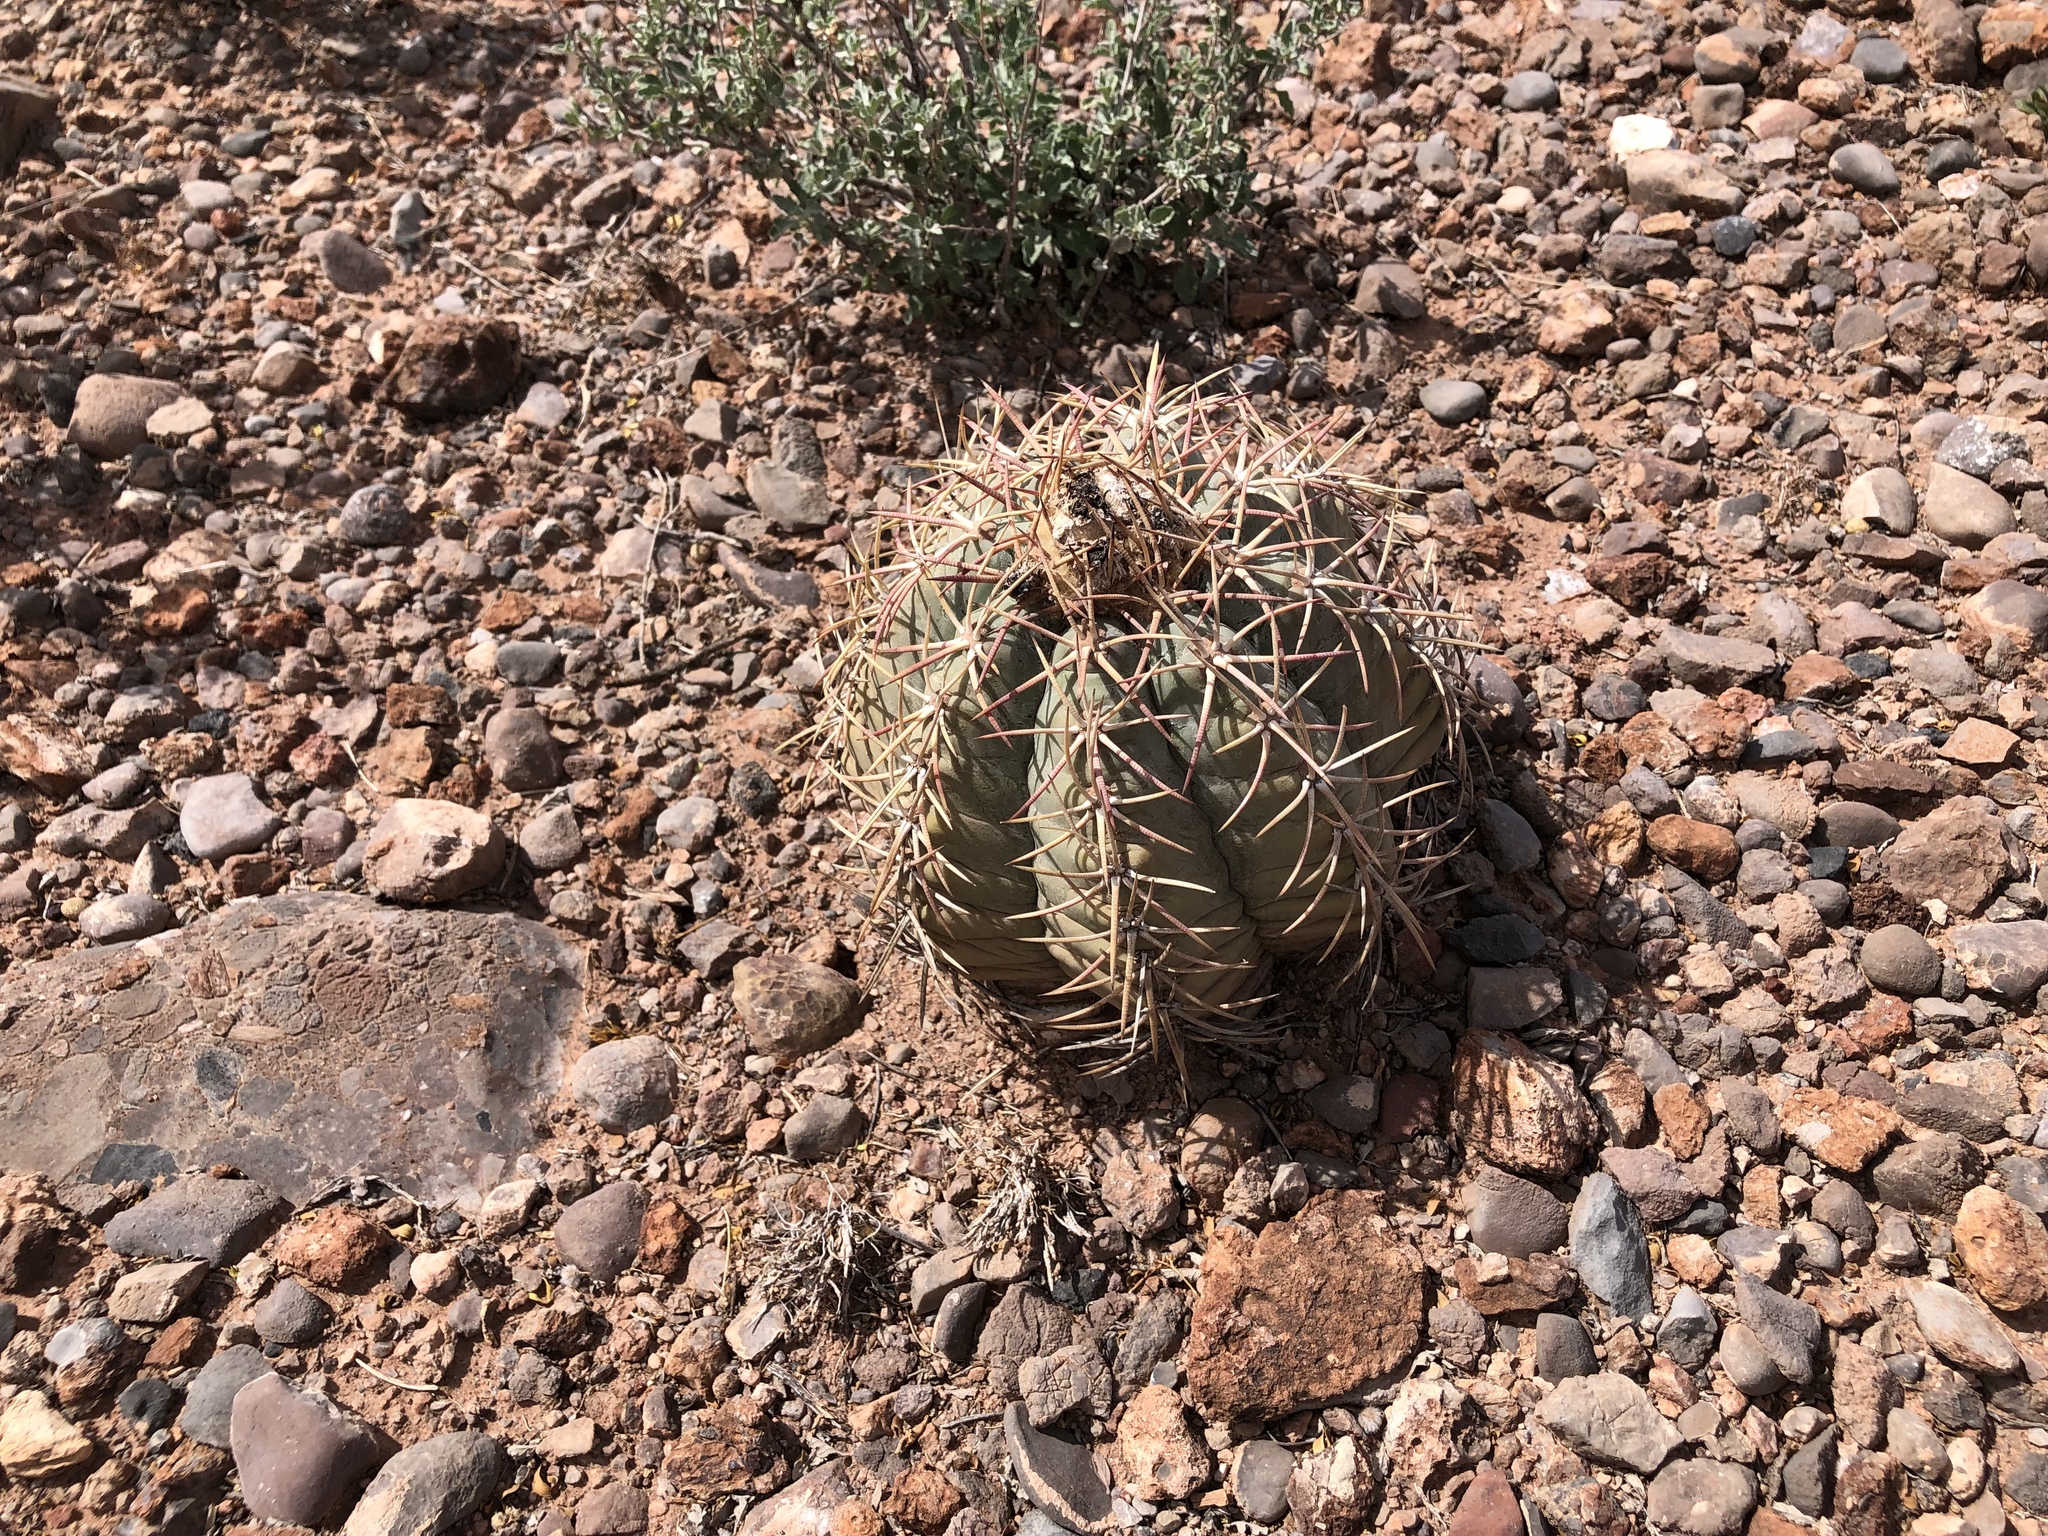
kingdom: Plantae
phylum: Tracheophyta
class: Magnoliopsida
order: Caryophyllales
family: Cactaceae
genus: Echinocactus
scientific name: Echinocactus horizonthalonius
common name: Devilshead
